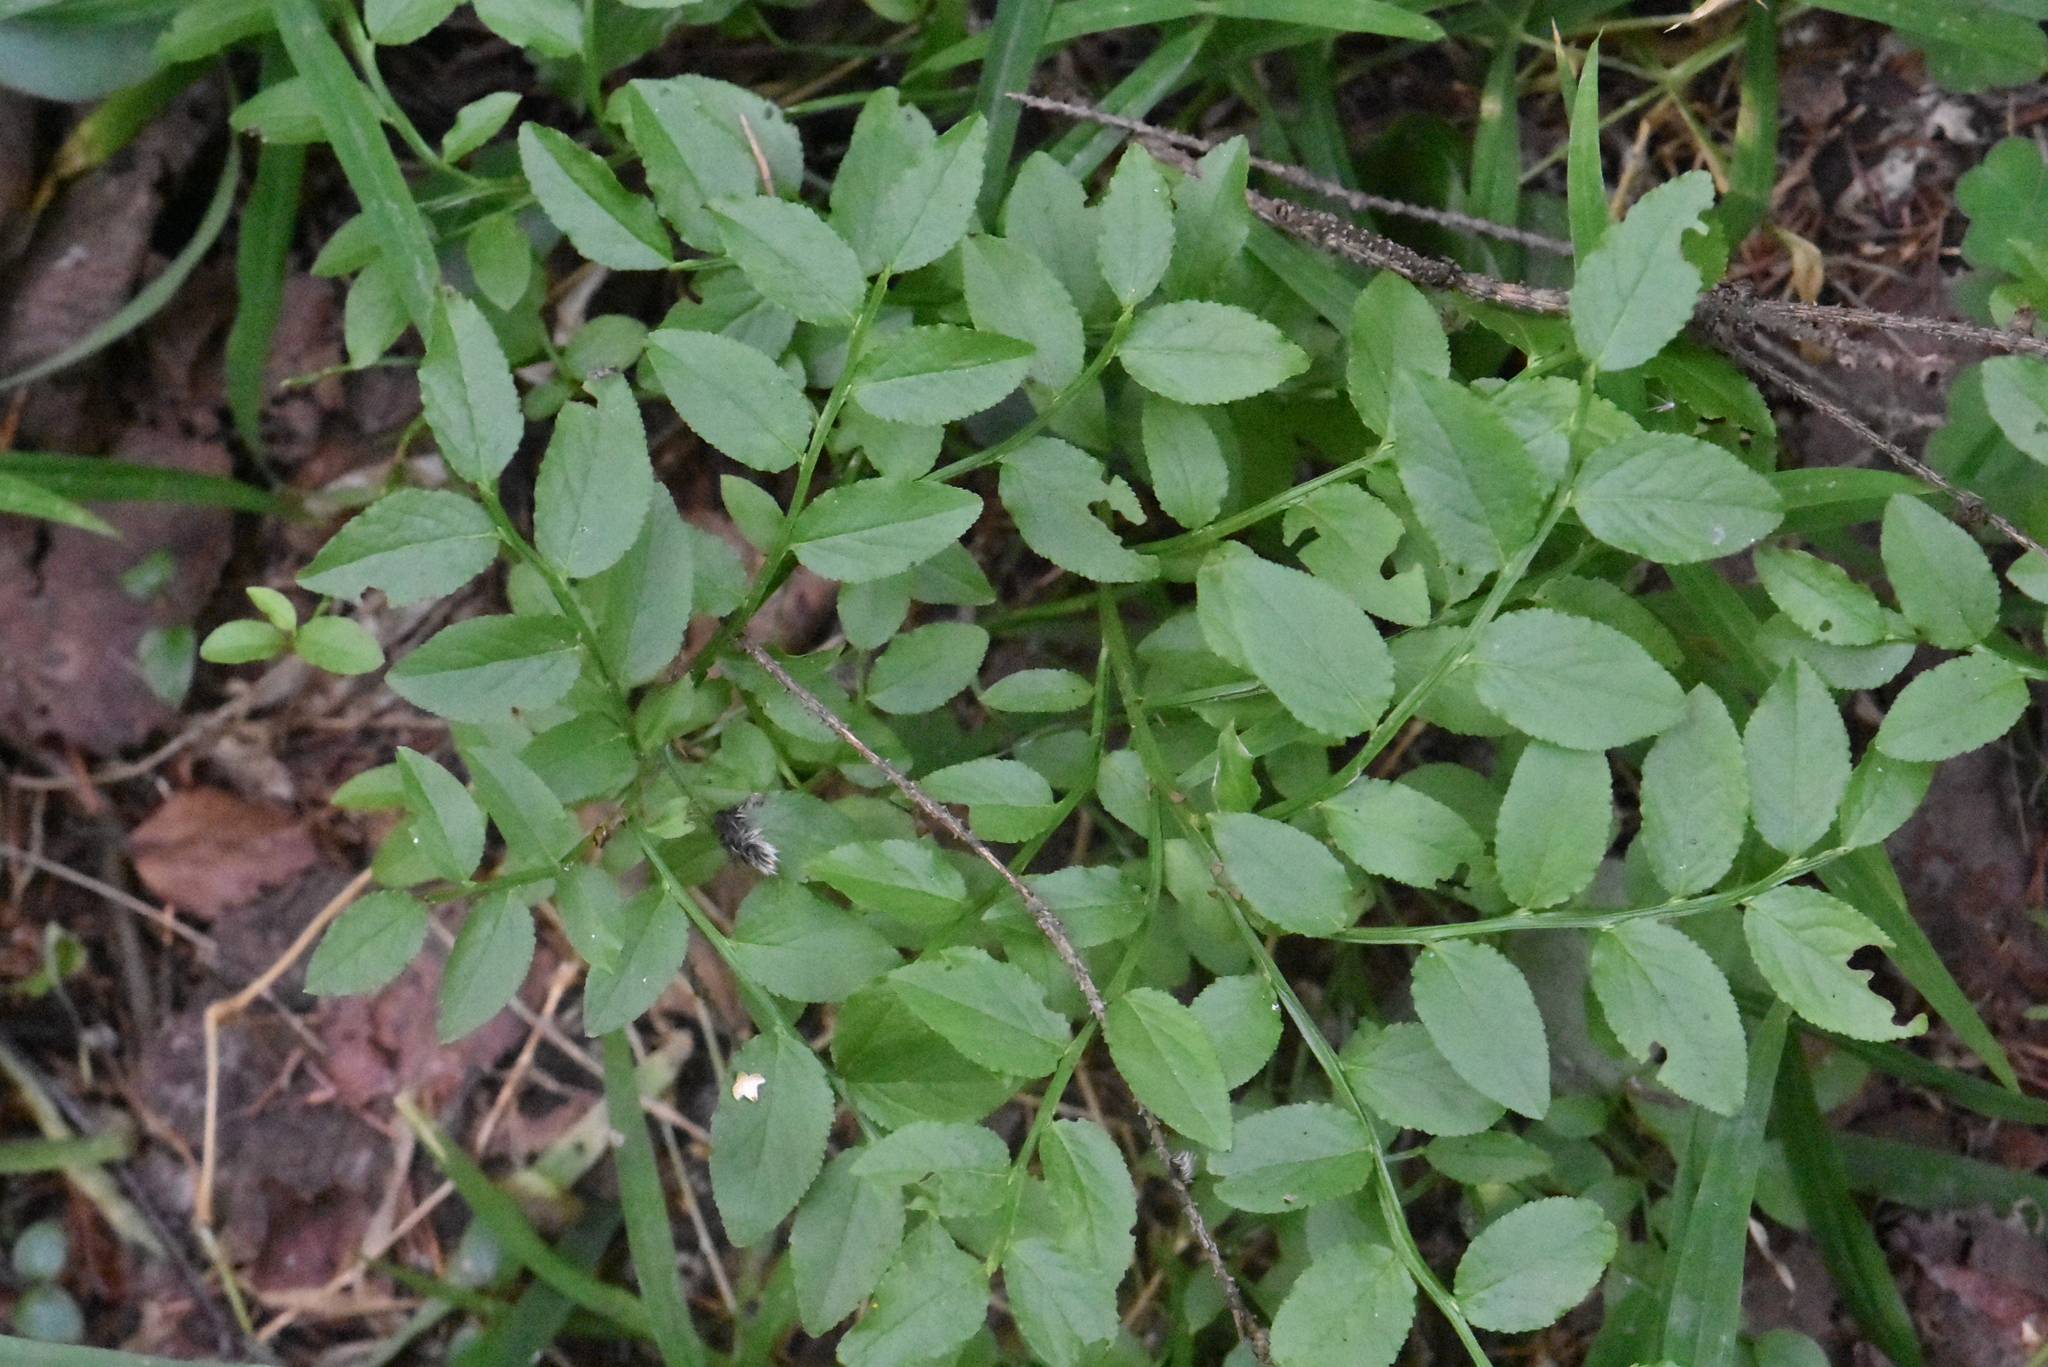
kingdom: Plantae
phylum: Tracheophyta
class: Magnoliopsida
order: Ericales
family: Ericaceae
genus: Vaccinium
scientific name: Vaccinium myrtillus
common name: Bilberry
